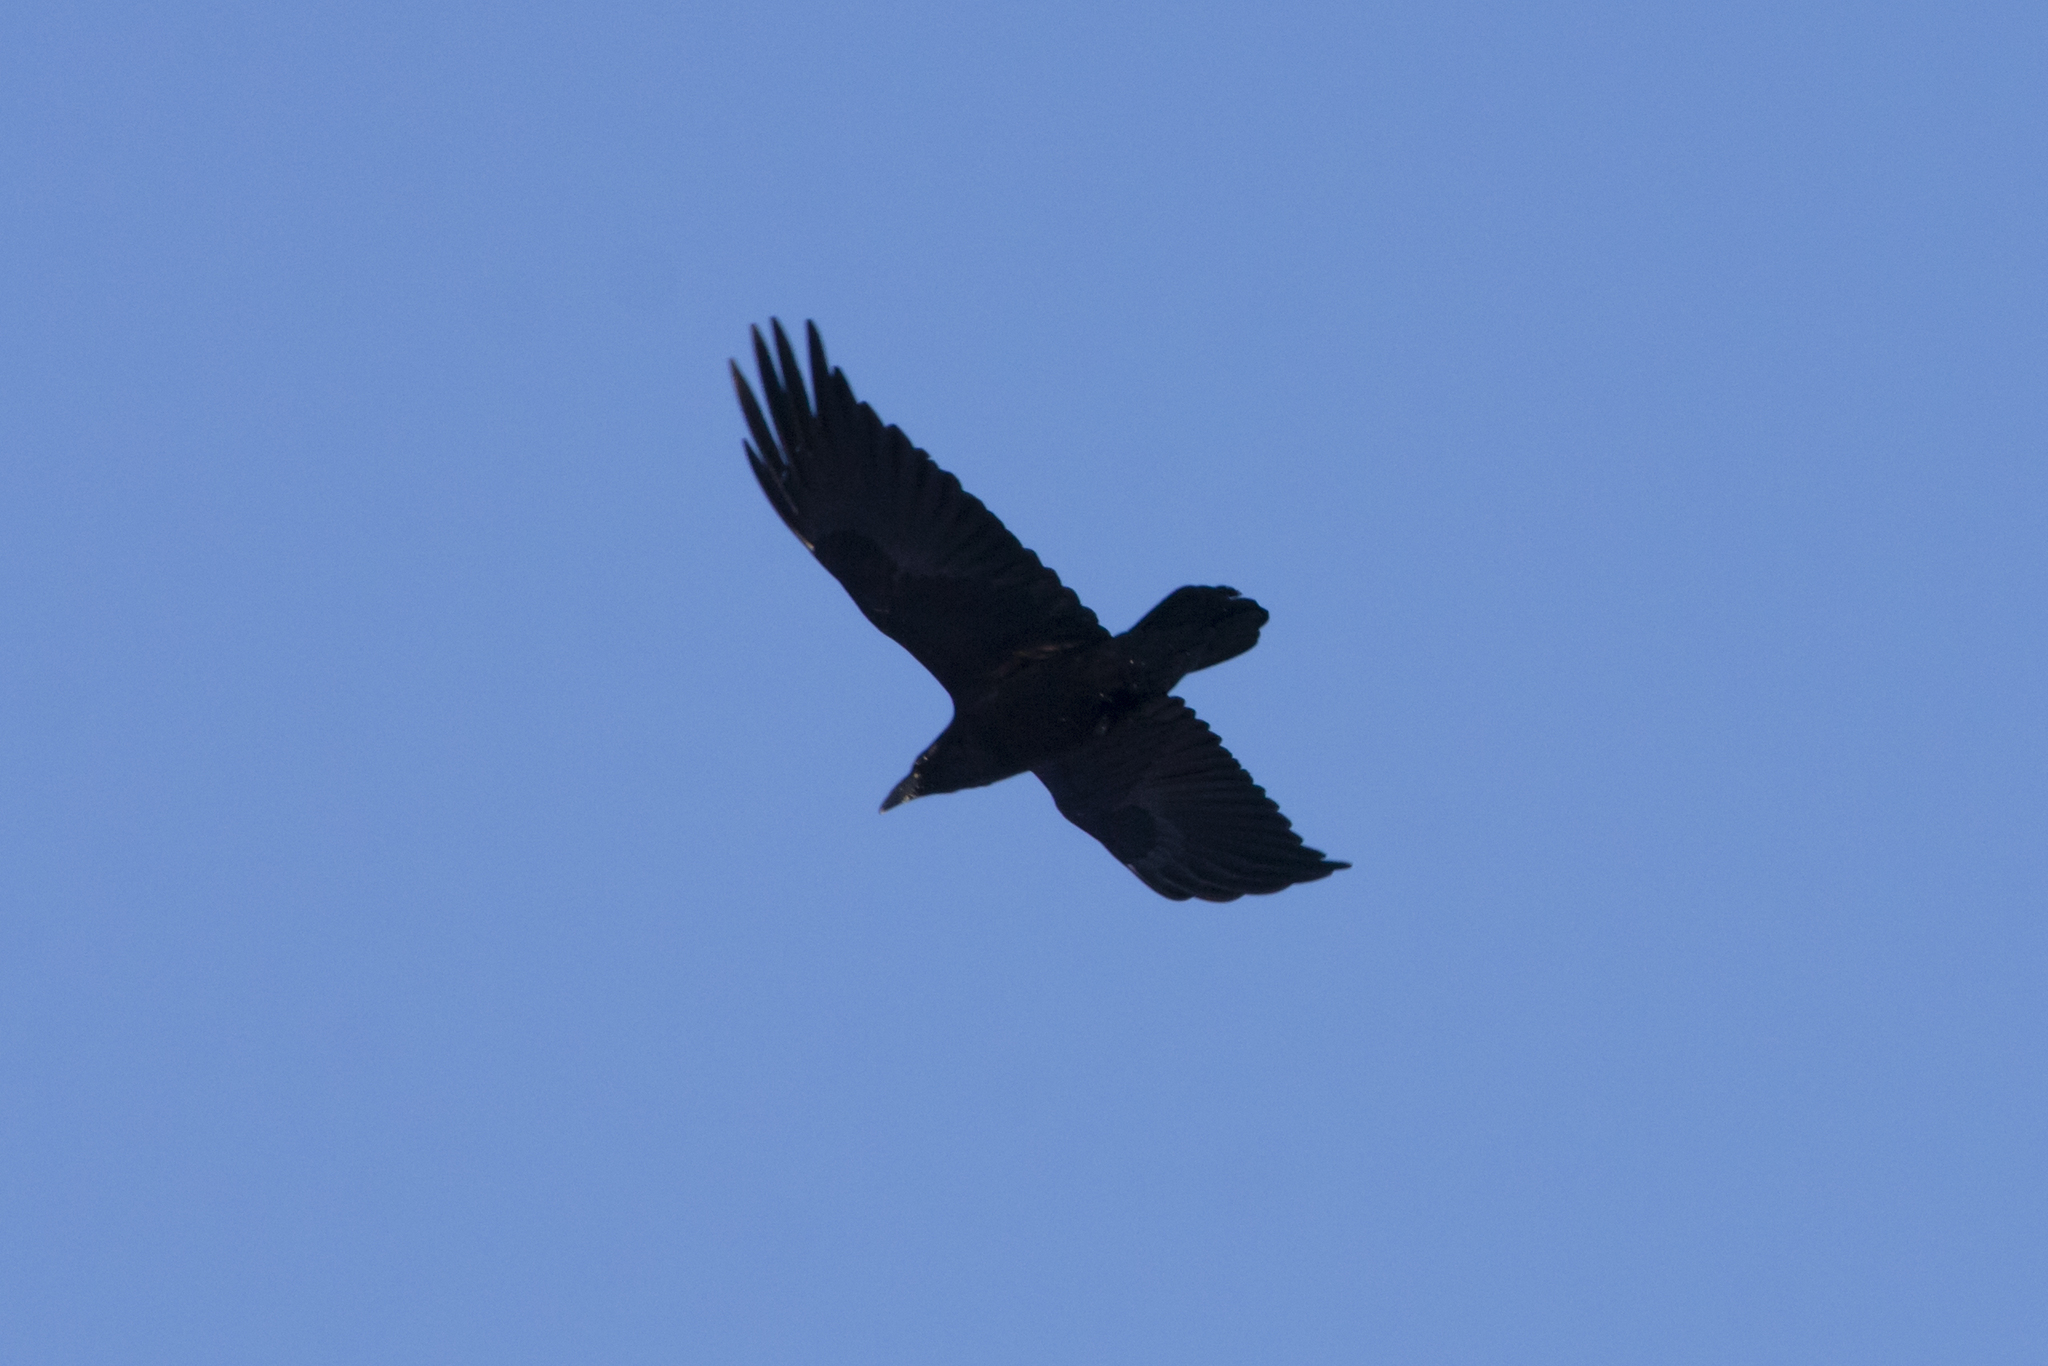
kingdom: Animalia
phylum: Chordata
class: Aves
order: Passeriformes
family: Corvidae
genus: Corvus
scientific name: Corvus corax
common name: Common raven
